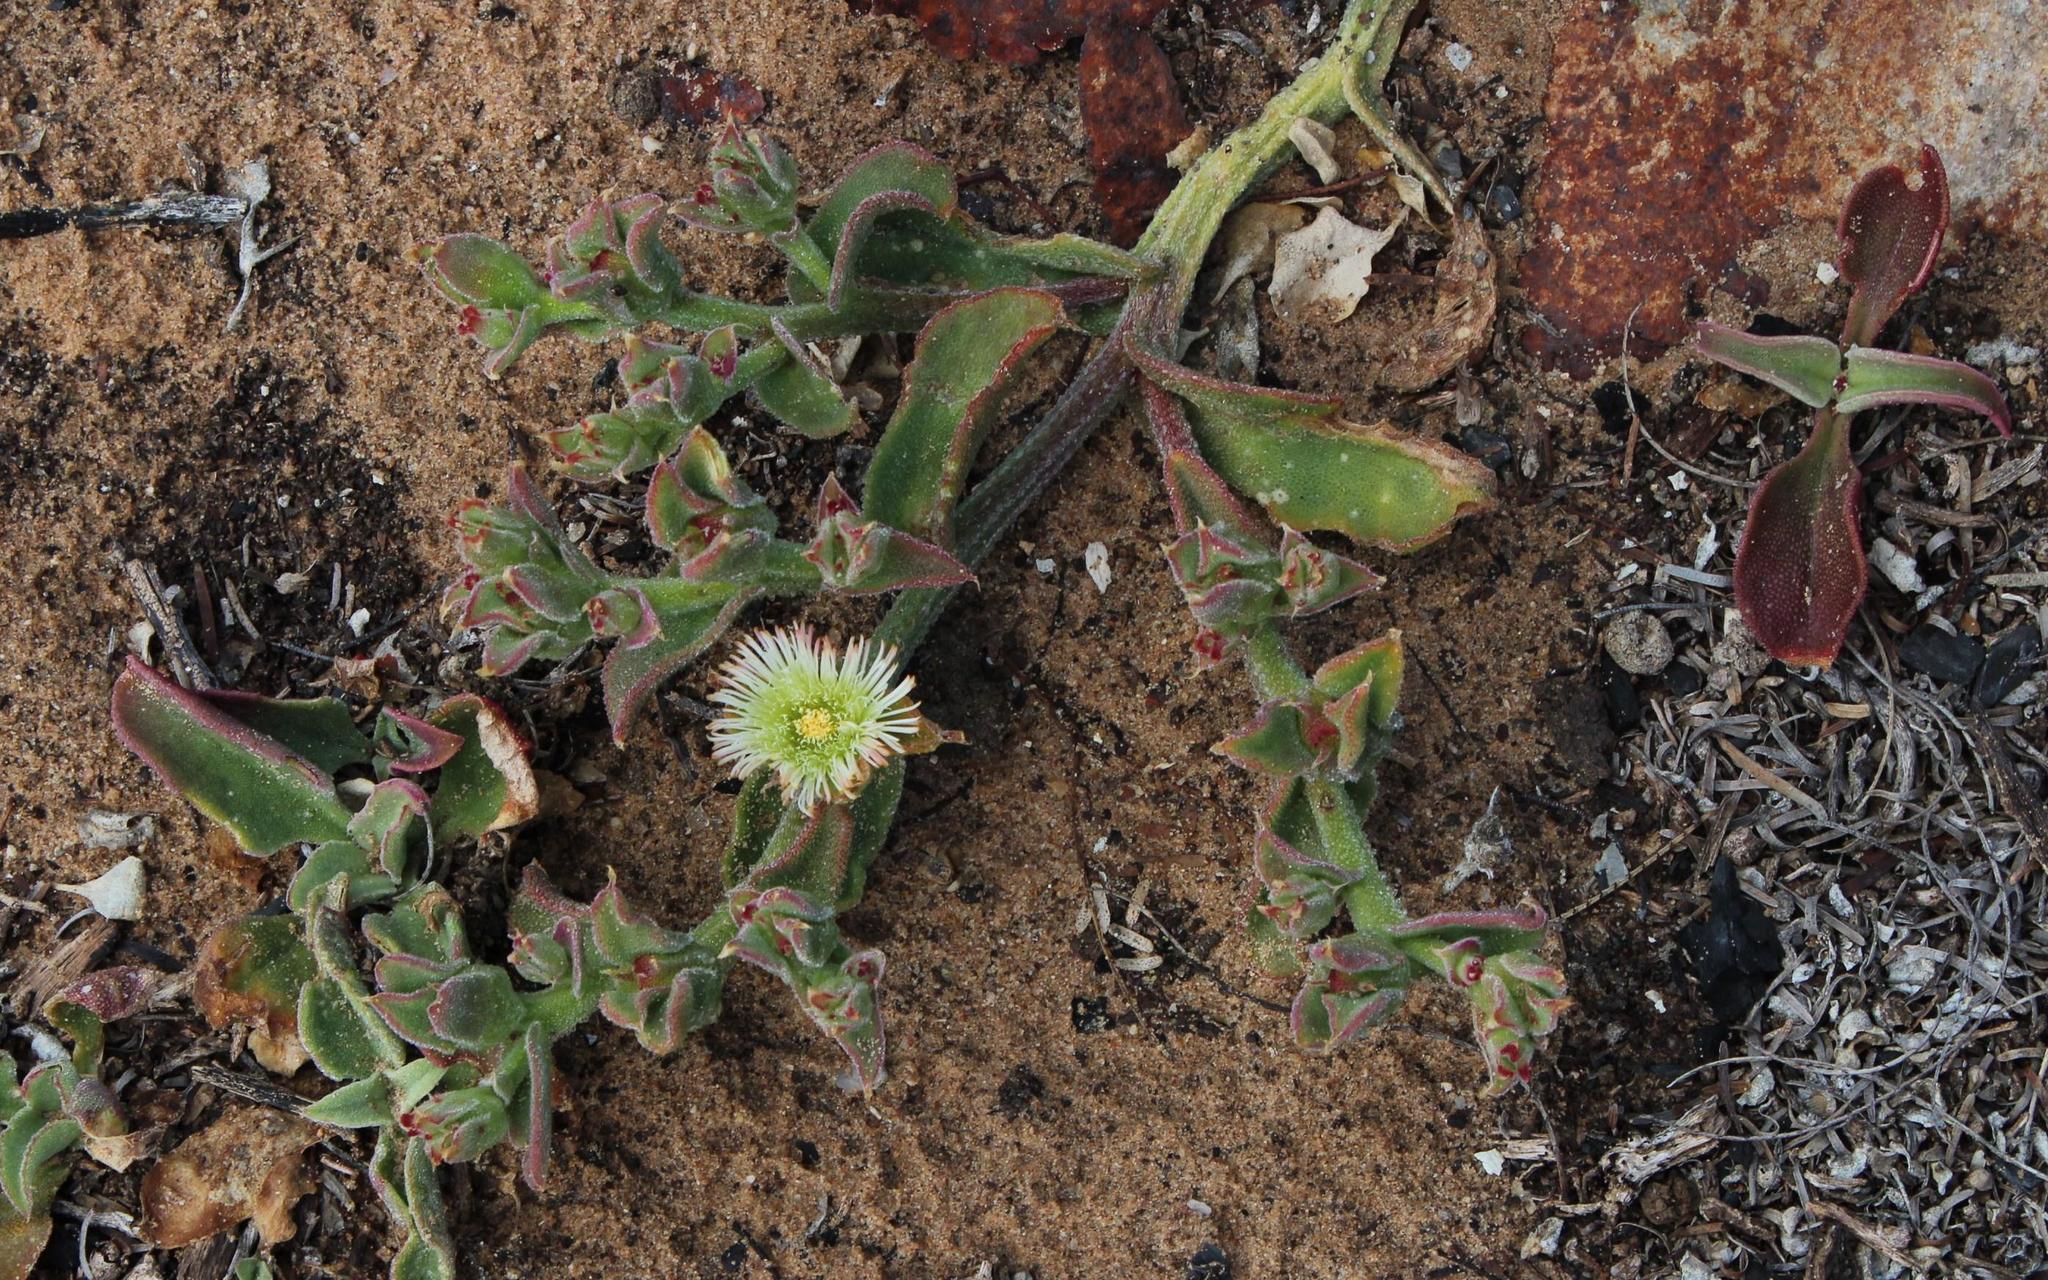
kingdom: Plantae
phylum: Tracheophyta
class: Magnoliopsida
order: Caryophyllales
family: Aizoaceae
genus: Mesembryanthemum
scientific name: Mesembryanthemum guerichianum
